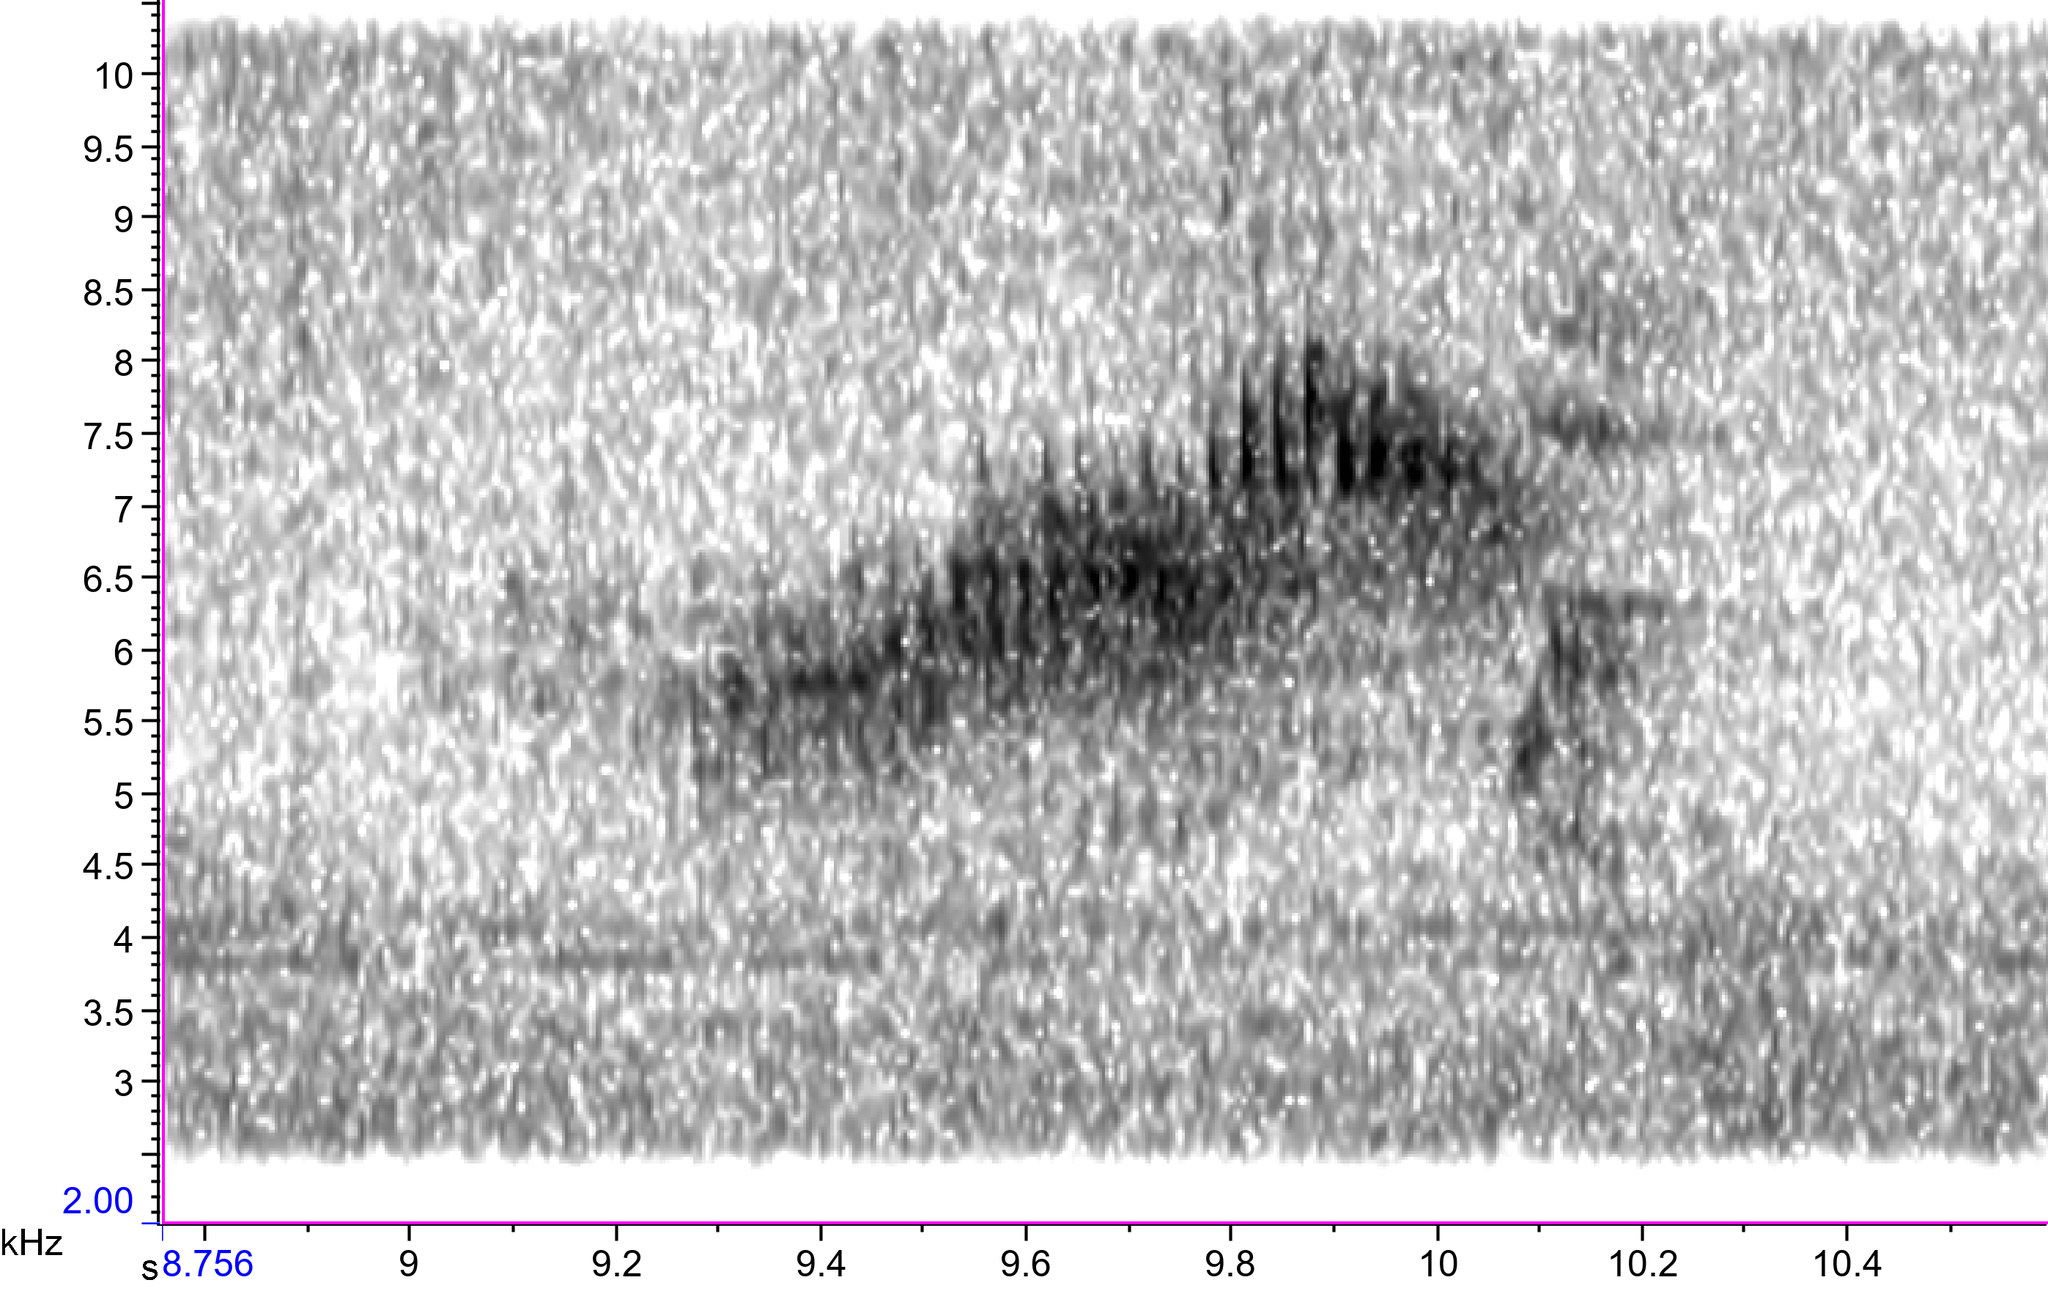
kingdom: Animalia
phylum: Chordata
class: Aves
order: Passeriformes
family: Parulidae
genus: Setophaga
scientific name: Setophaga americana
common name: Northern parula
